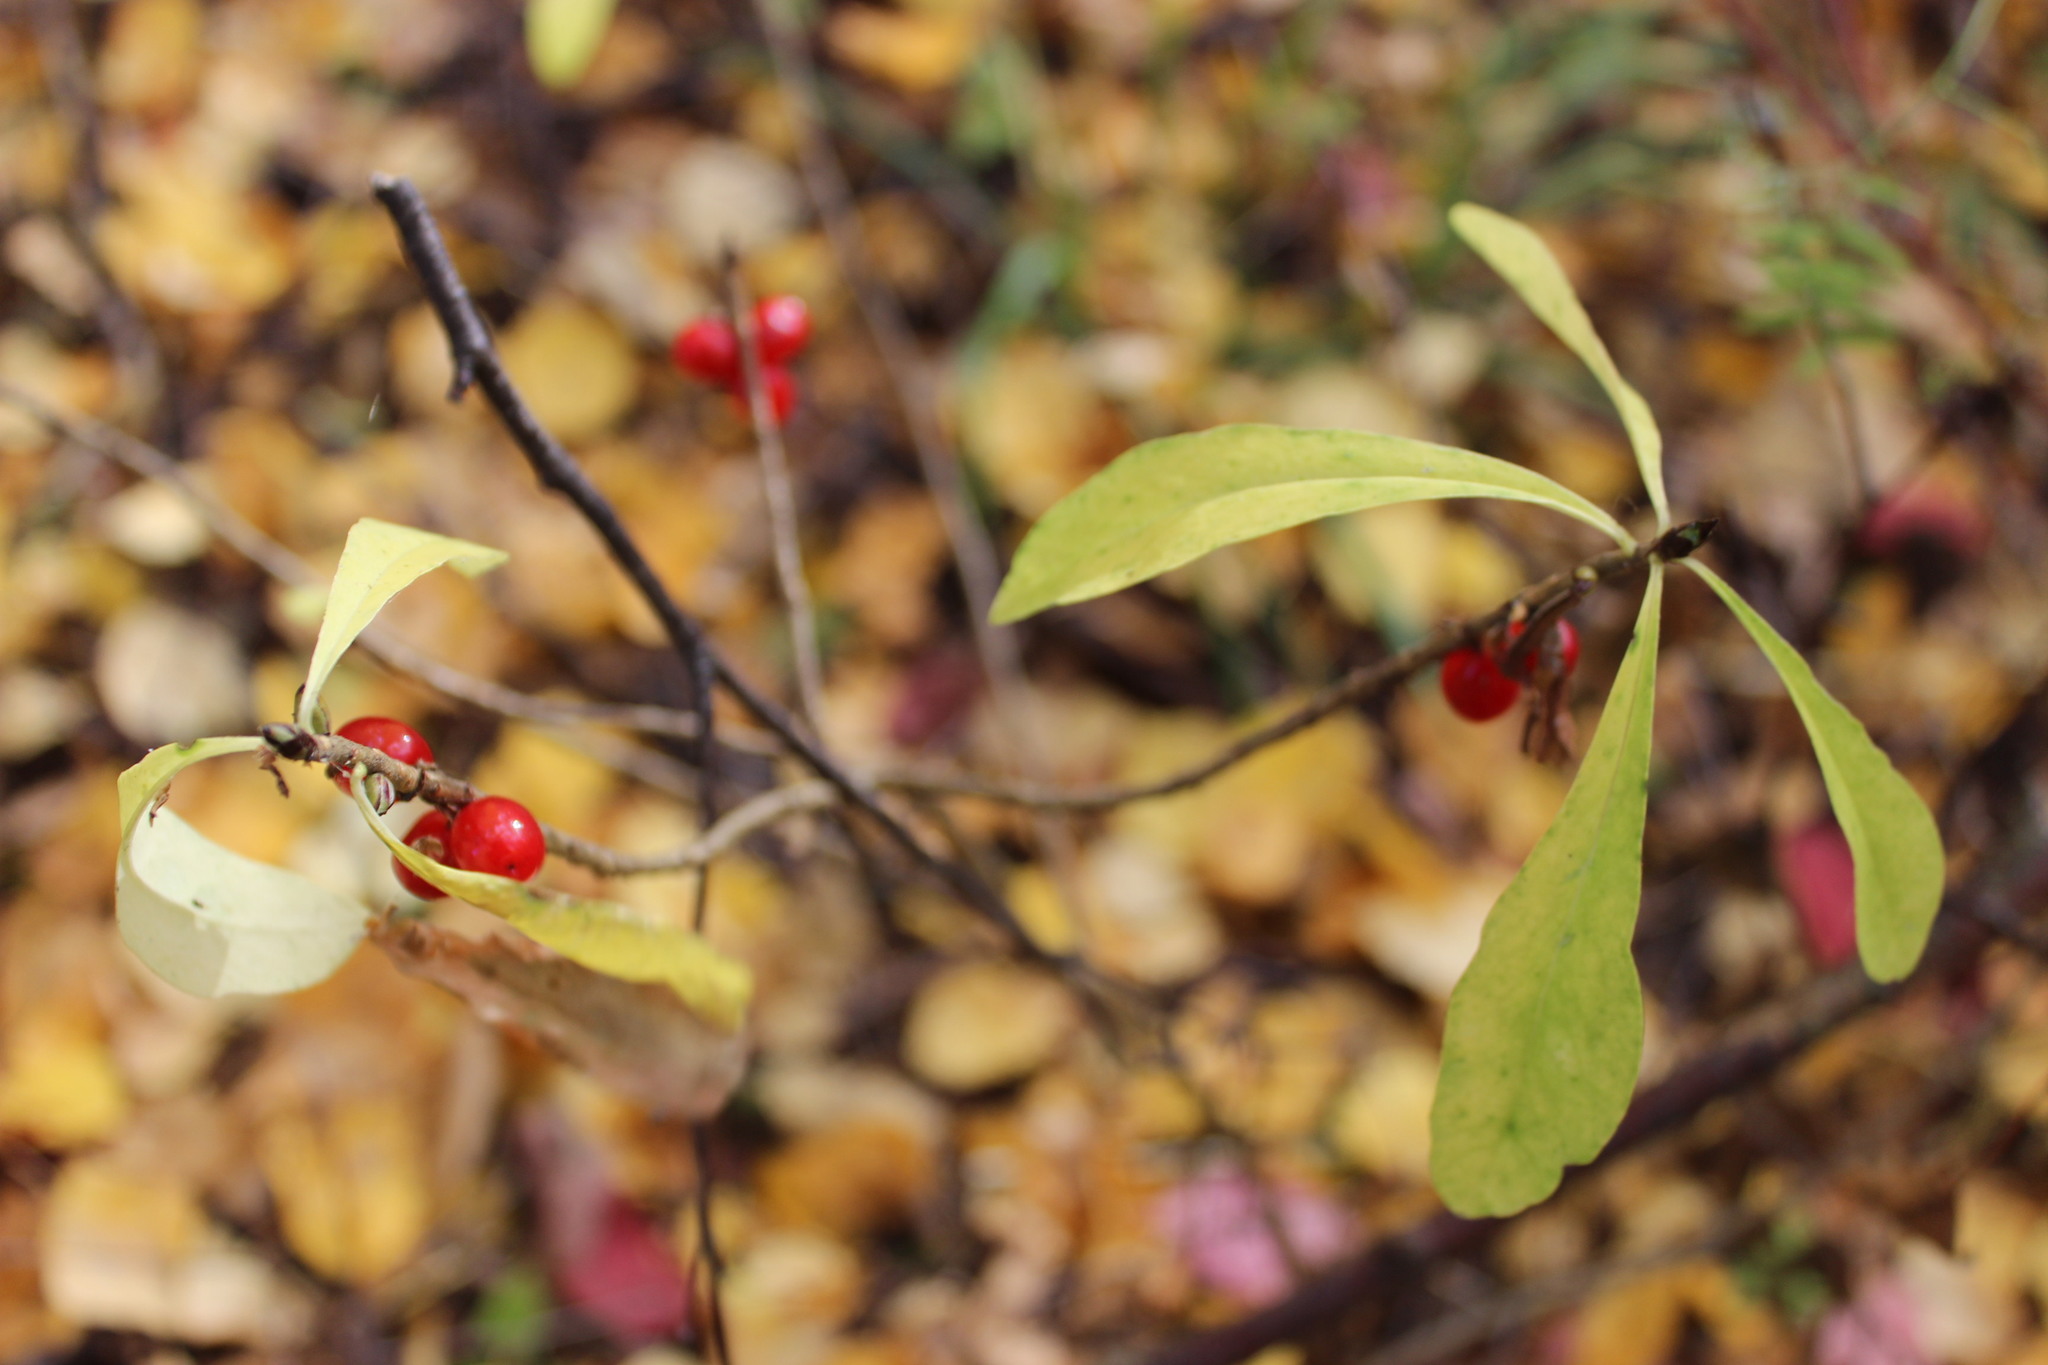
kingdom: Plantae
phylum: Tracheophyta
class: Magnoliopsida
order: Malvales
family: Thymelaeaceae
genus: Daphne
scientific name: Daphne mezereum
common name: Mezereon
